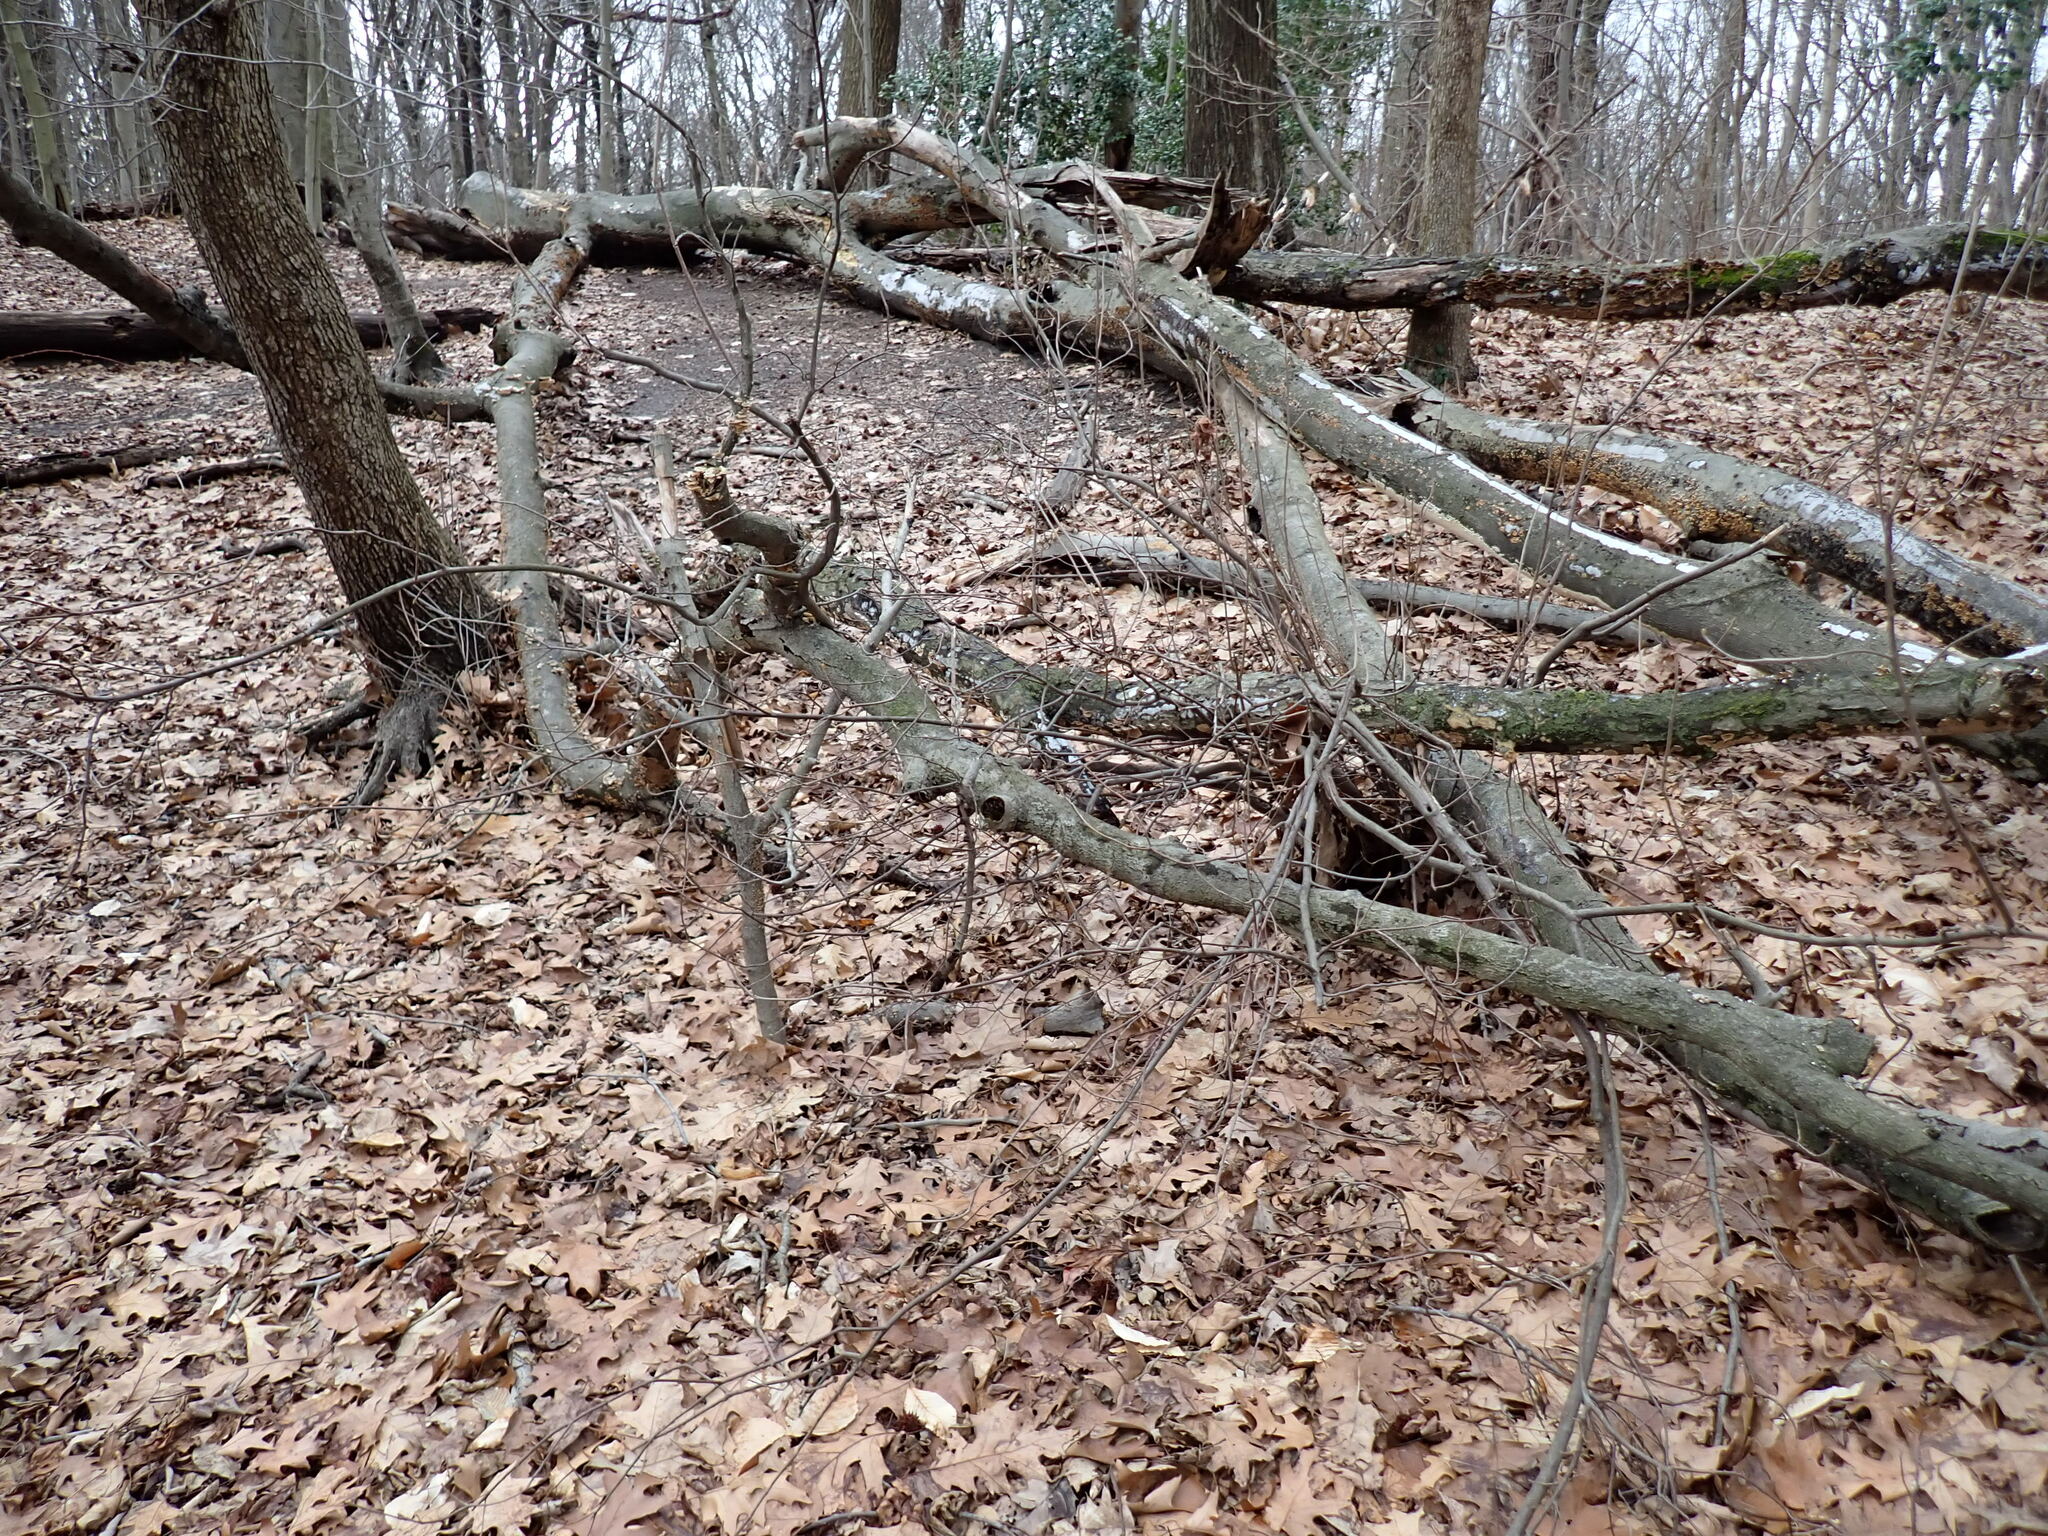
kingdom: Plantae
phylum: Tracheophyta
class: Magnoliopsida
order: Ericales
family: Clethraceae
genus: Clethra
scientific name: Clethra alnifolia
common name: Sweet pepperbush
